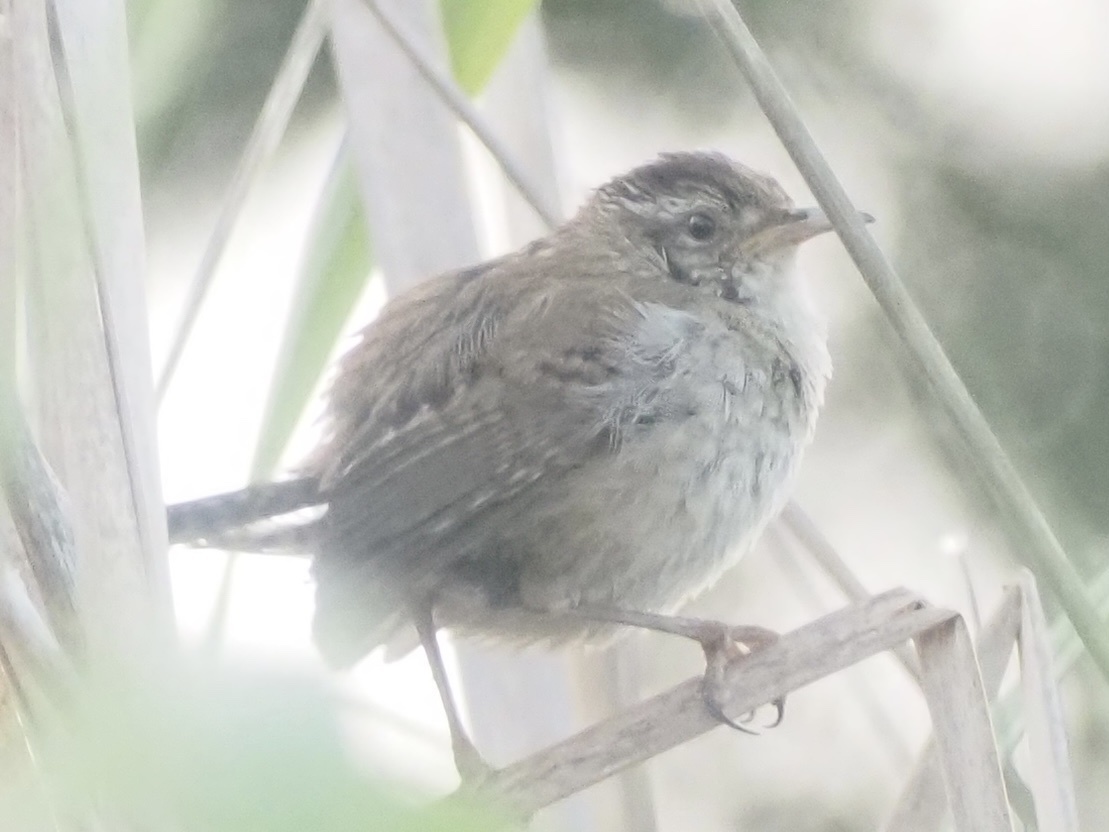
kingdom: Animalia
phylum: Chordata
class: Aves
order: Passeriformes
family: Troglodytidae
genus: Cistothorus
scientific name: Cistothorus palustris
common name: Marsh wren
